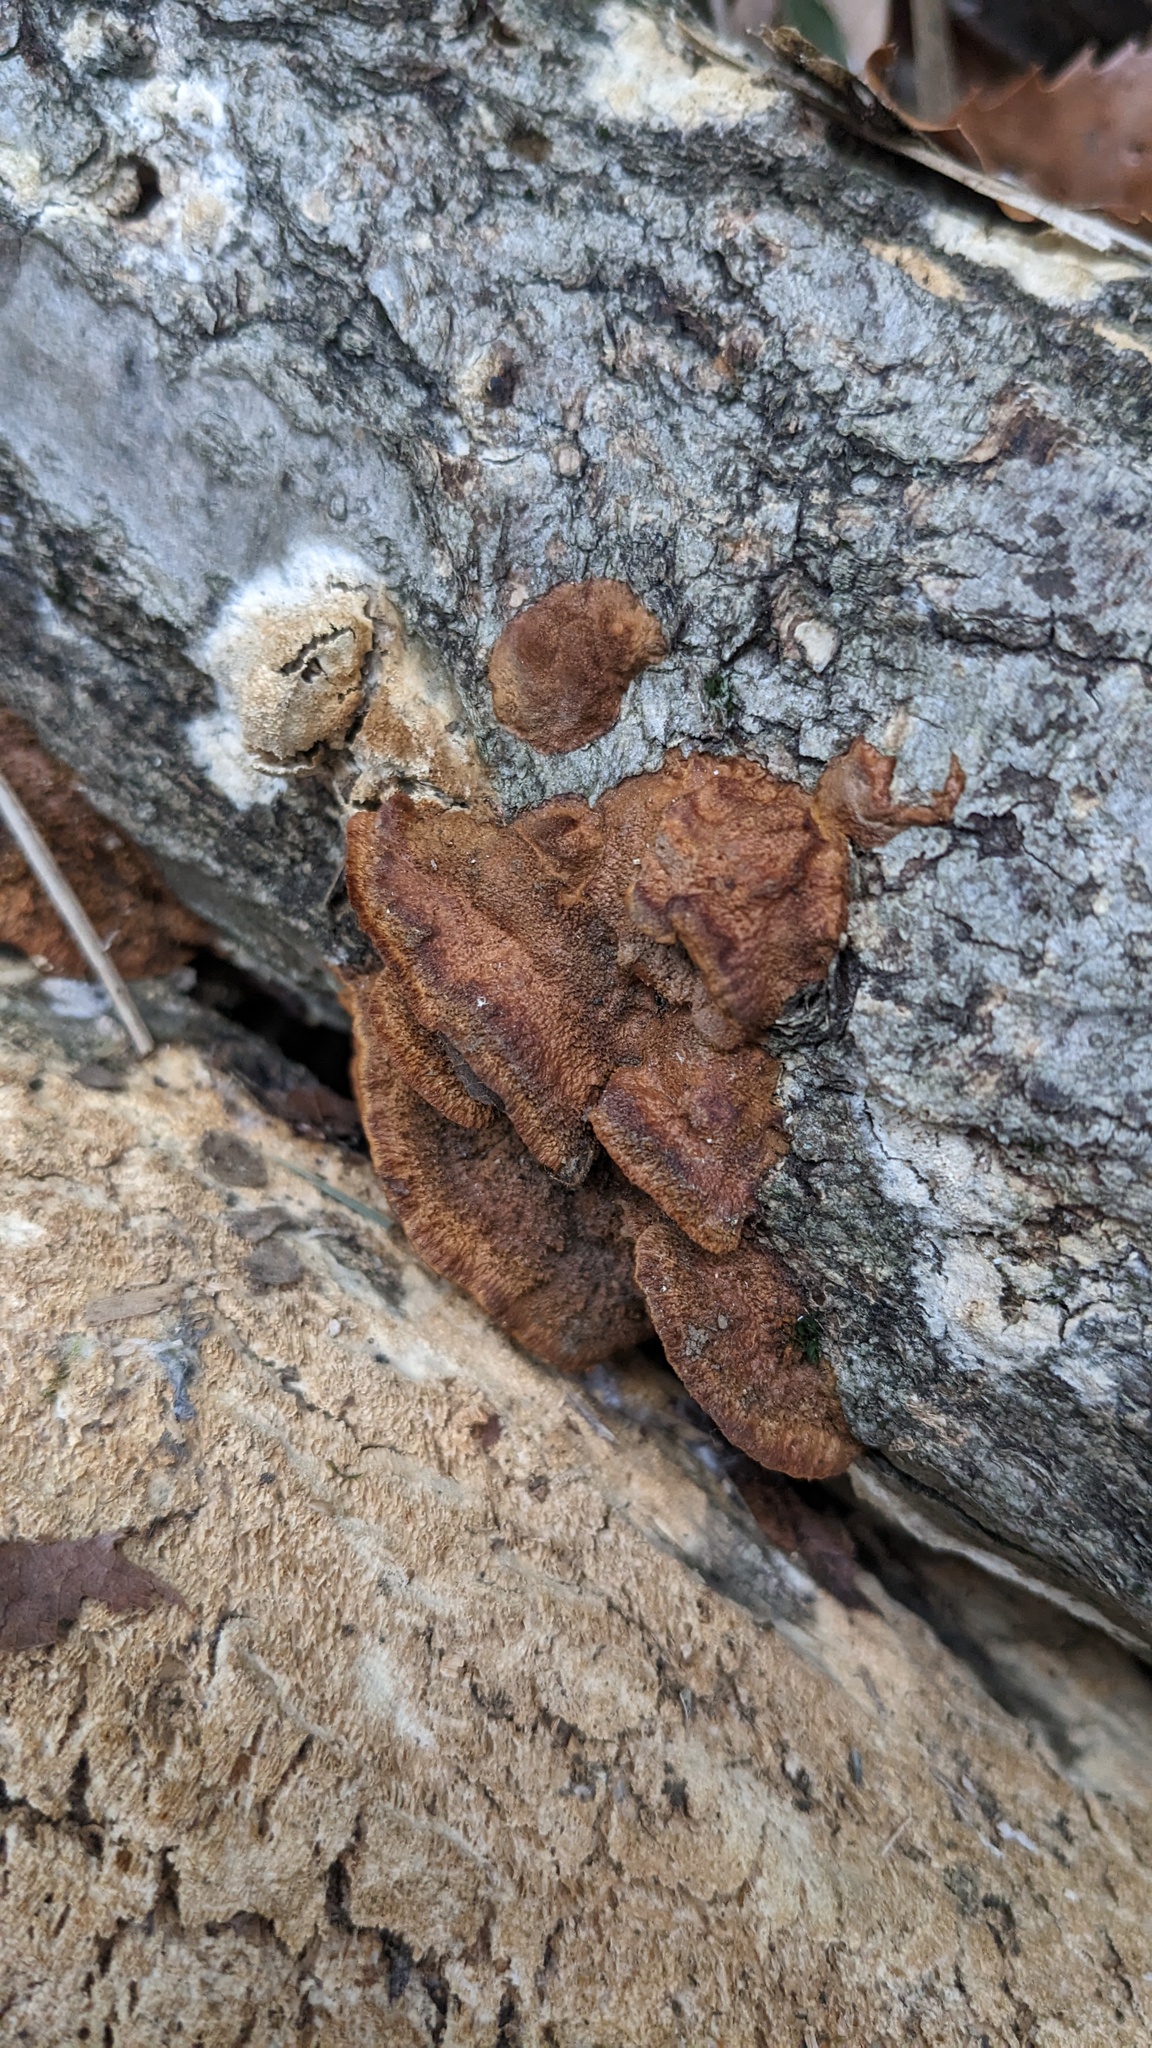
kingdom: Fungi
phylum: Basidiomycota
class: Agaricomycetes
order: Hymenochaetales
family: Hymenochaetaceae
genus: Phellinus
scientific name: Phellinus gilvus
